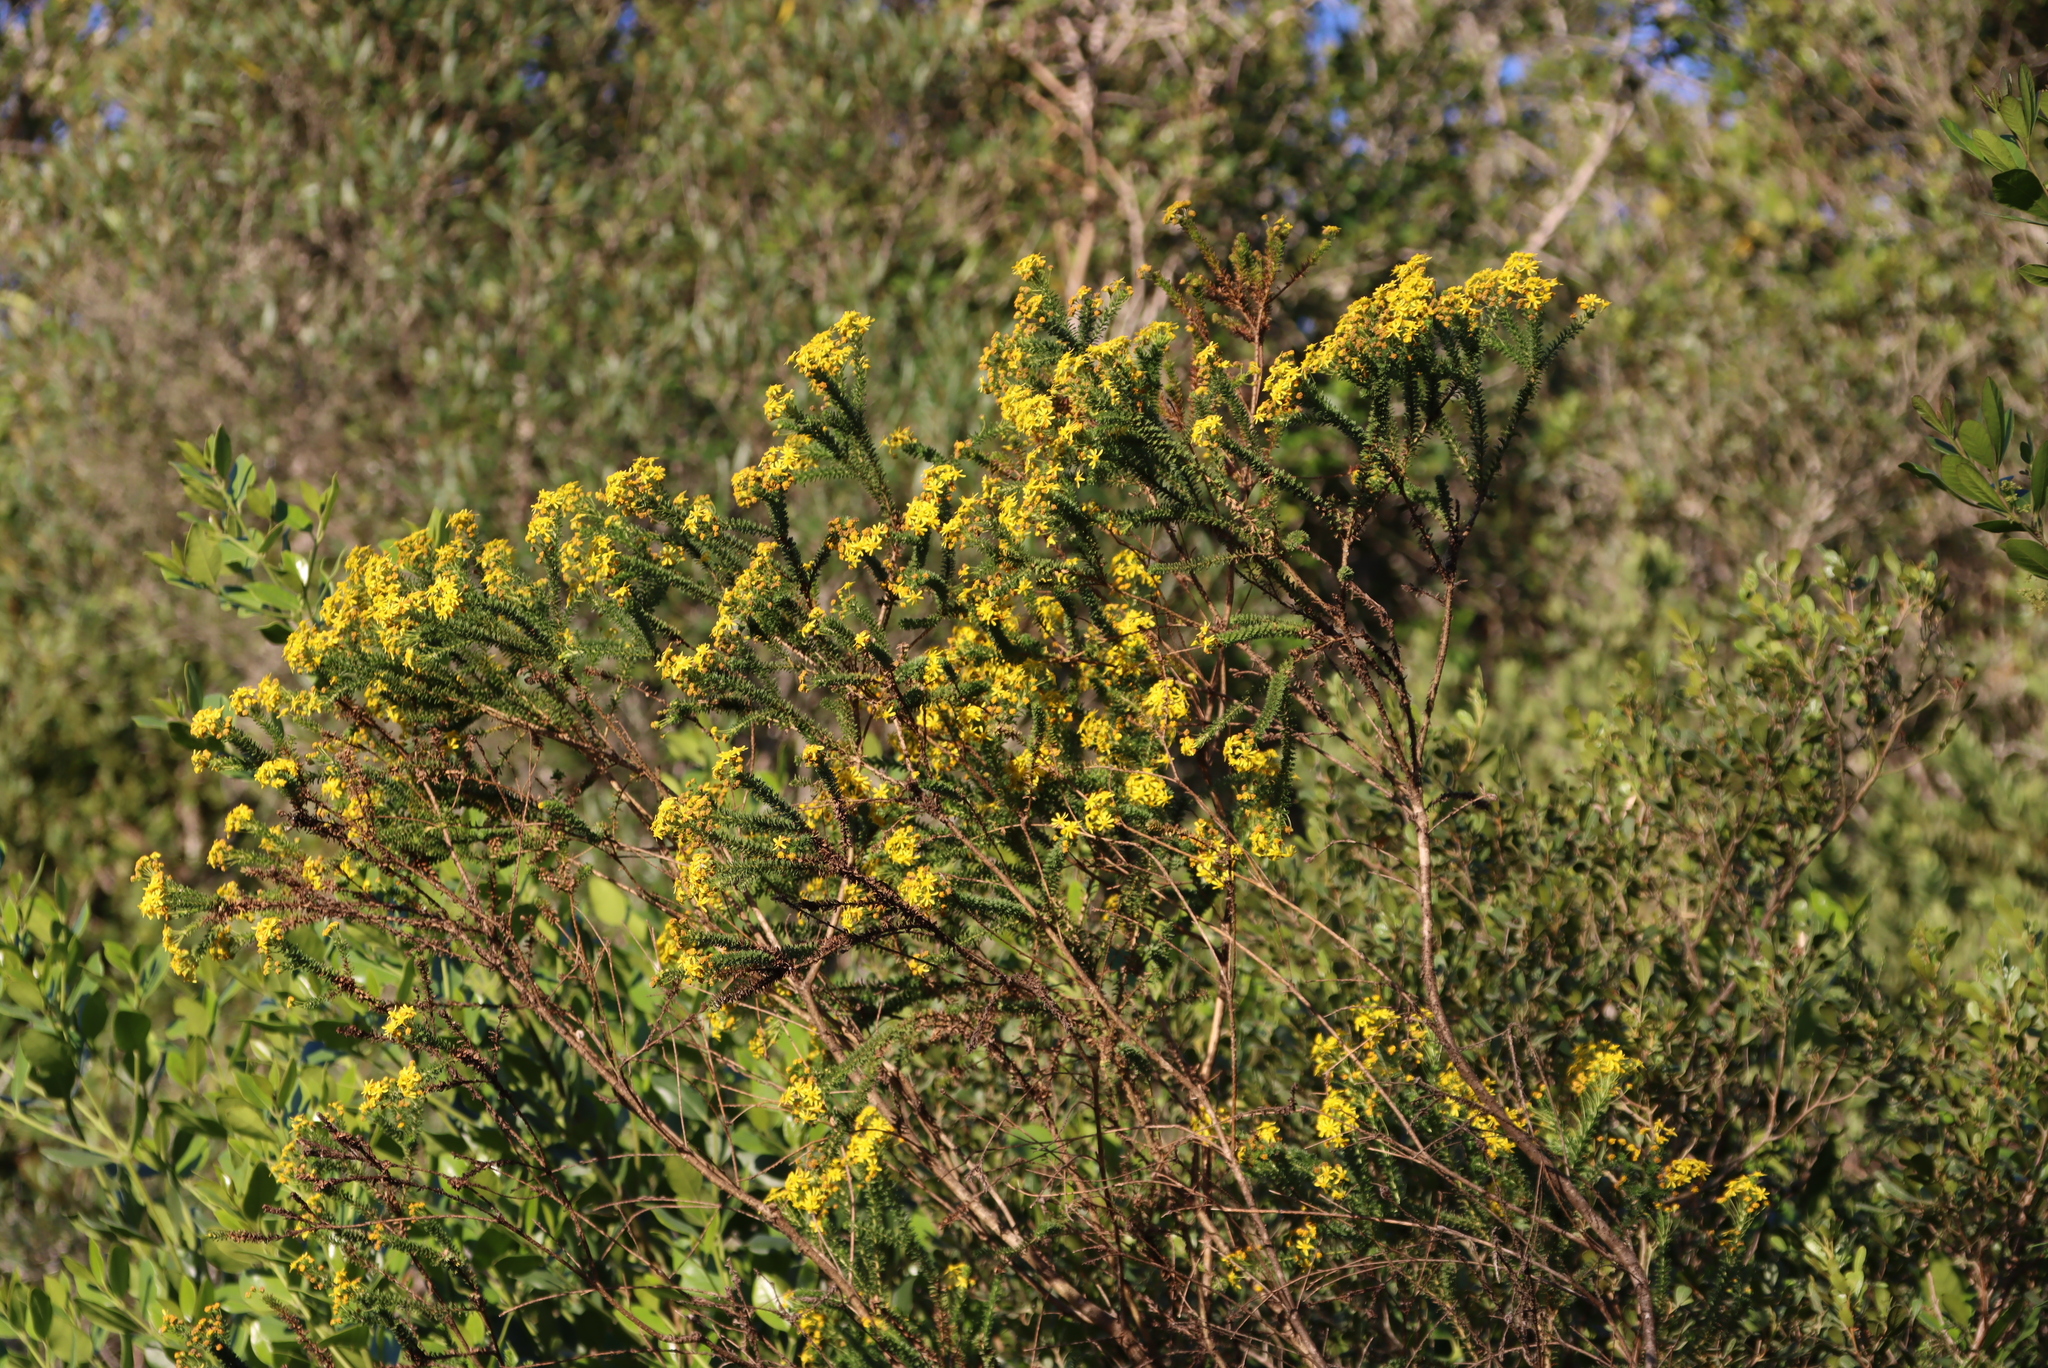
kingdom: Plantae
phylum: Tracheophyta
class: Magnoliopsida
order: Asterales
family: Asteraceae
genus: Euryops
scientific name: Euryops virgineus
